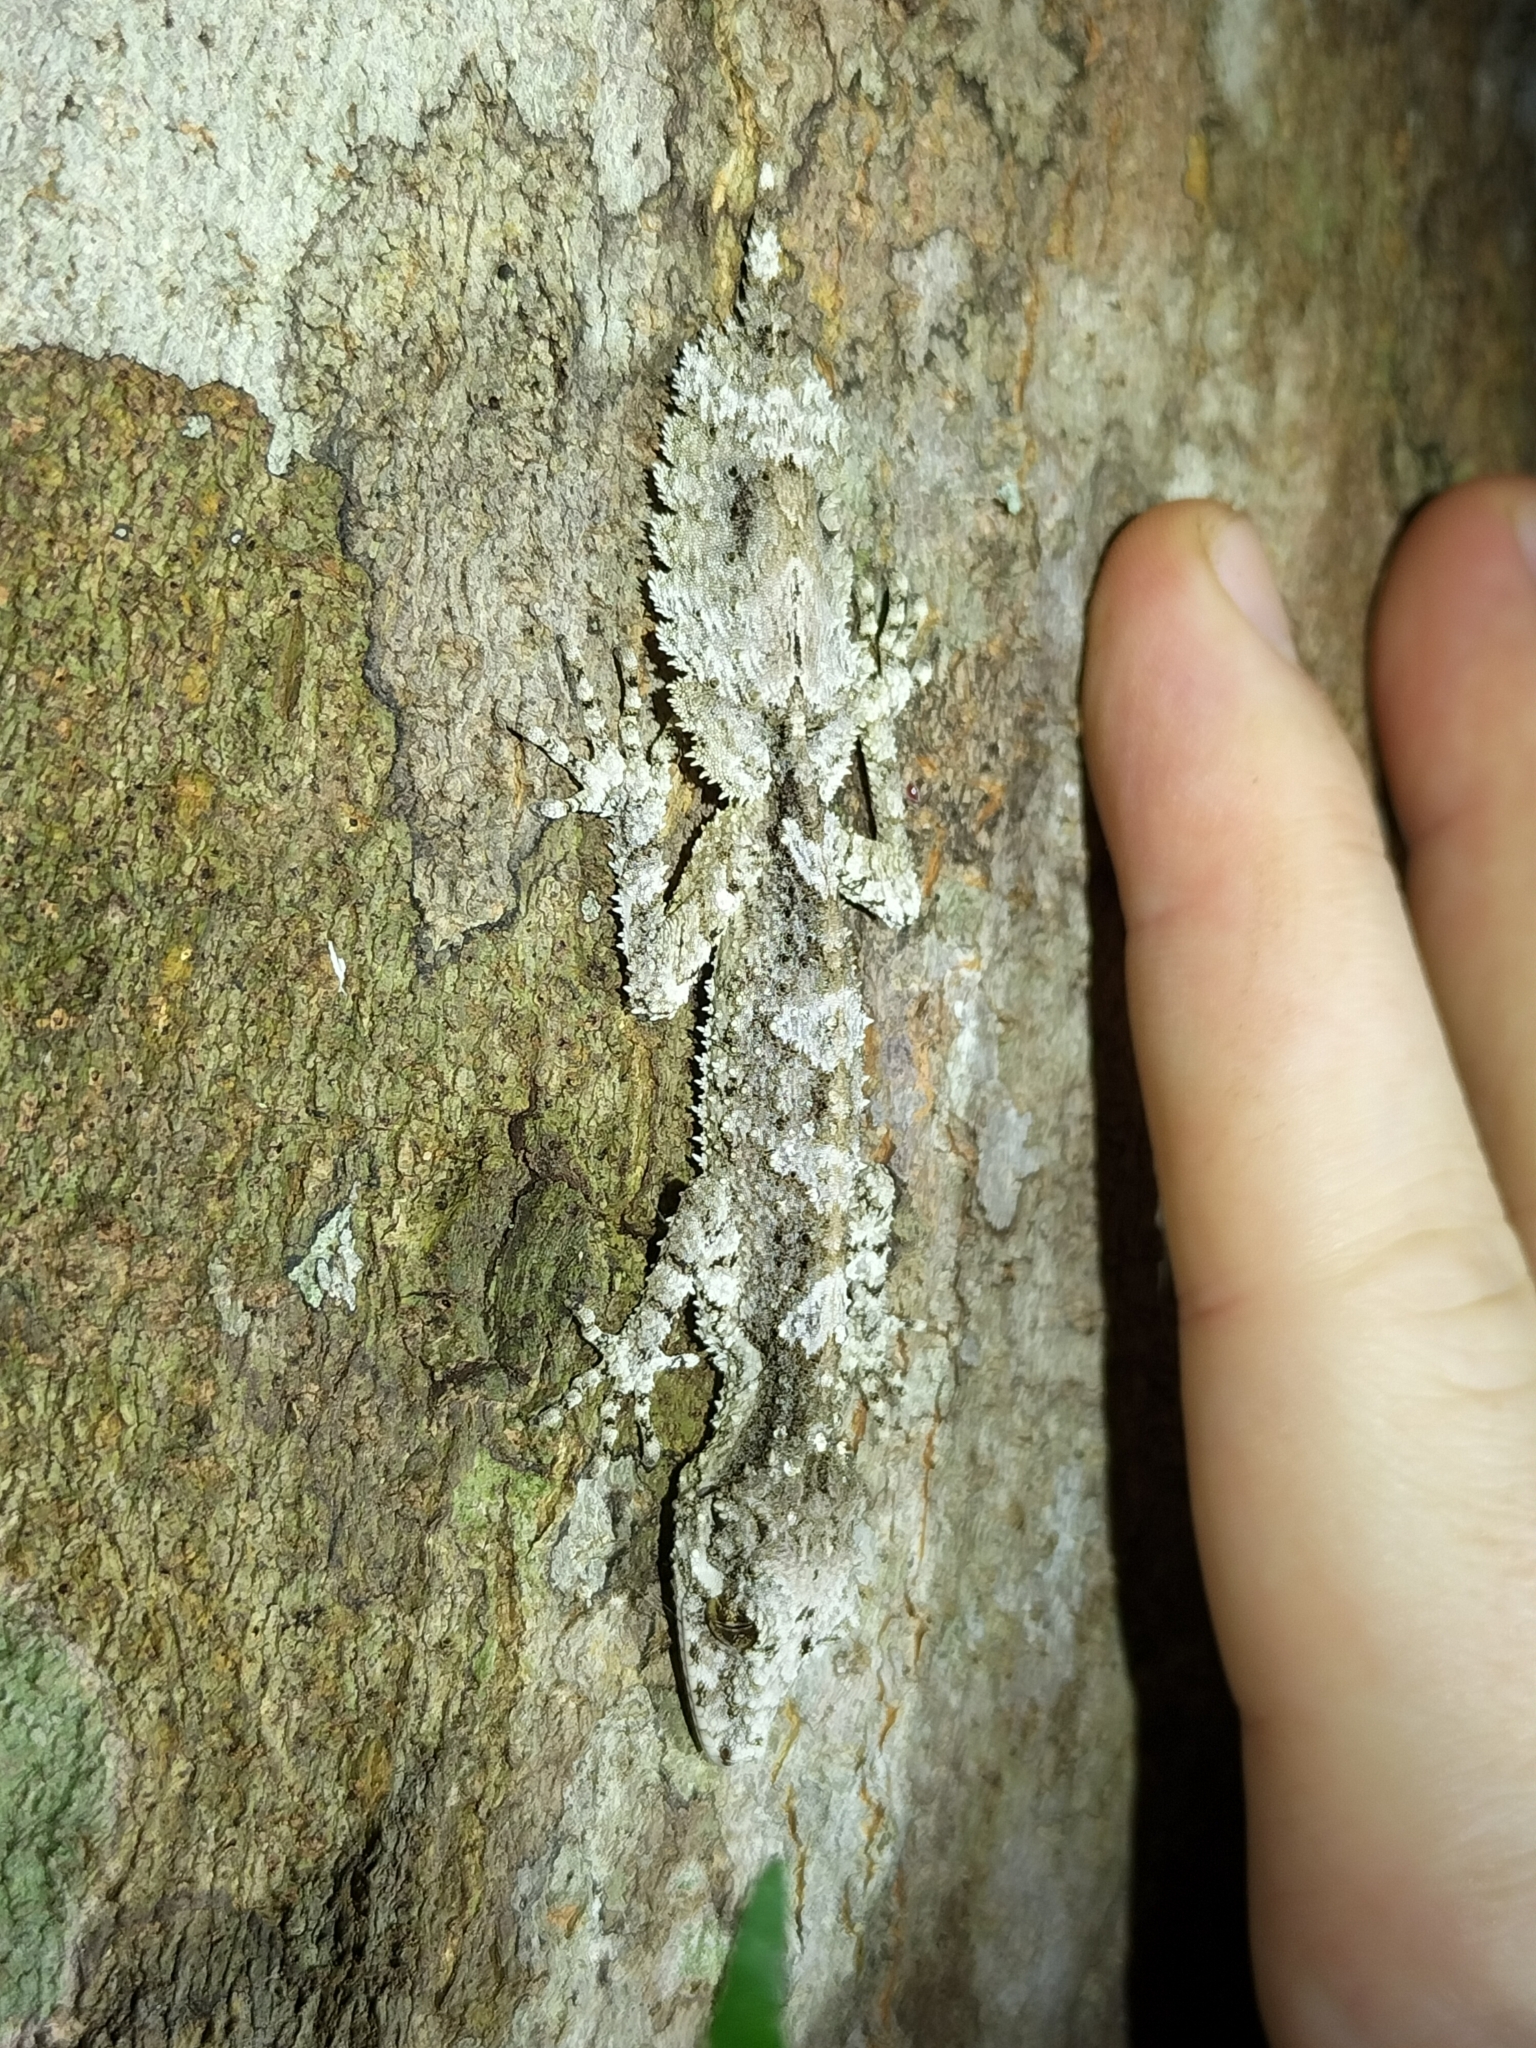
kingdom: Animalia
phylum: Chordata
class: Squamata
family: Carphodactylidae
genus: Saltuarius
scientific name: Saltuarius cornutus
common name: Leaf-tailed gecko
